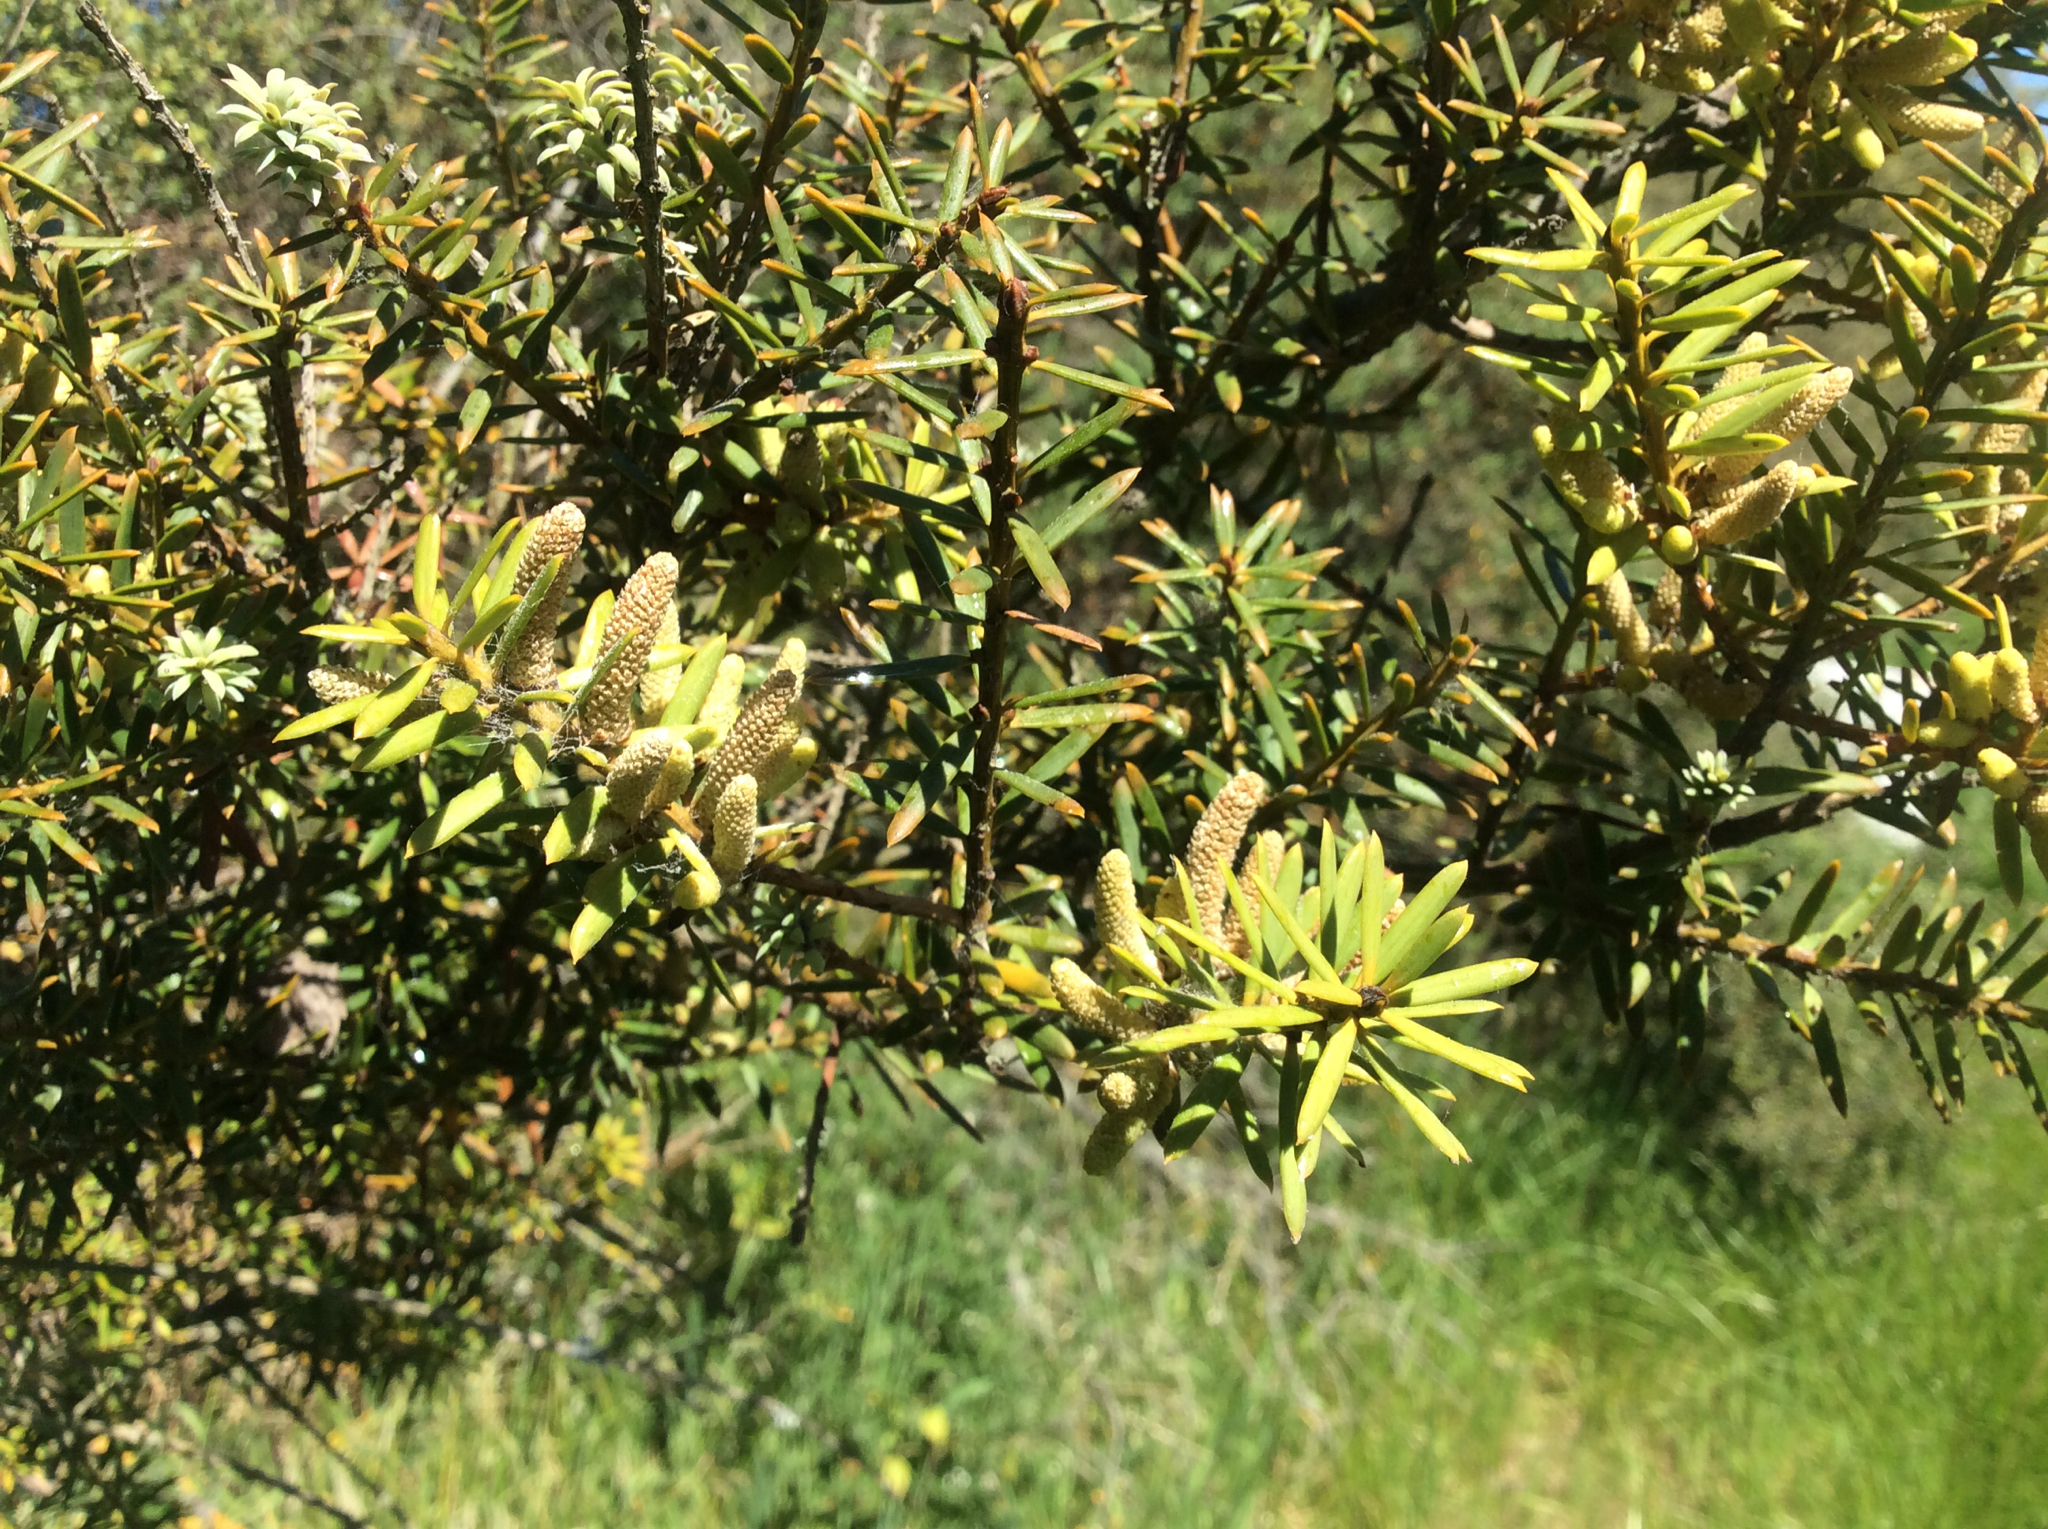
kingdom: Plantae
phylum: Tracheophyta
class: Pinopsida
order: Pinales
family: Podocarpaceae
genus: Podocarpus
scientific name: Podocarpus totara
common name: Totara
